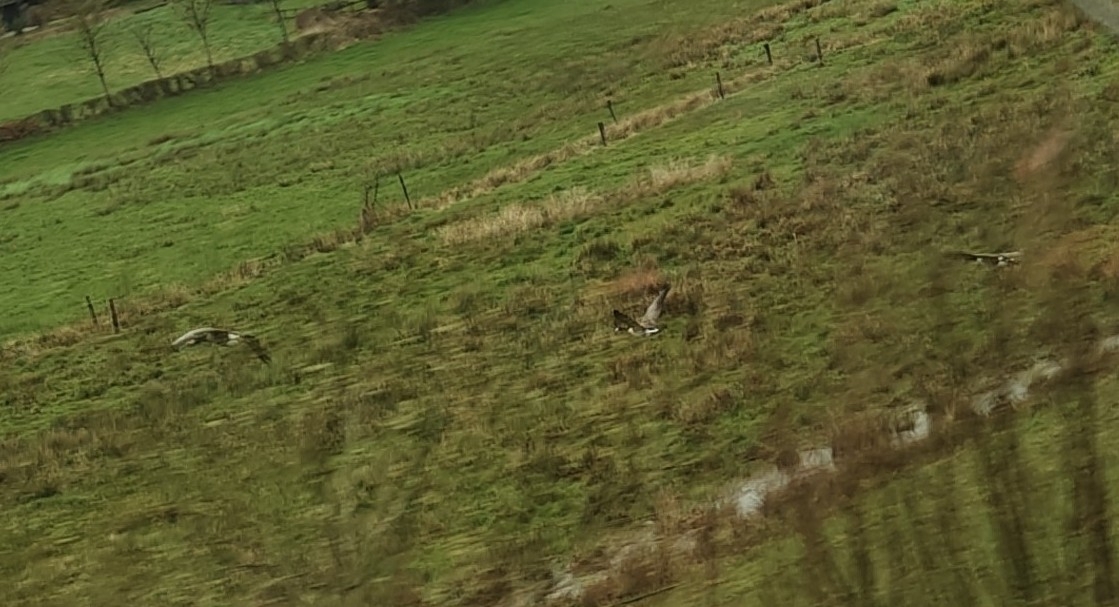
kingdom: Animalia
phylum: Chordata
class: Aves
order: Anseriformes
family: Anatidae
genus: Branta
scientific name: Branta canadensis
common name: Canada goose
